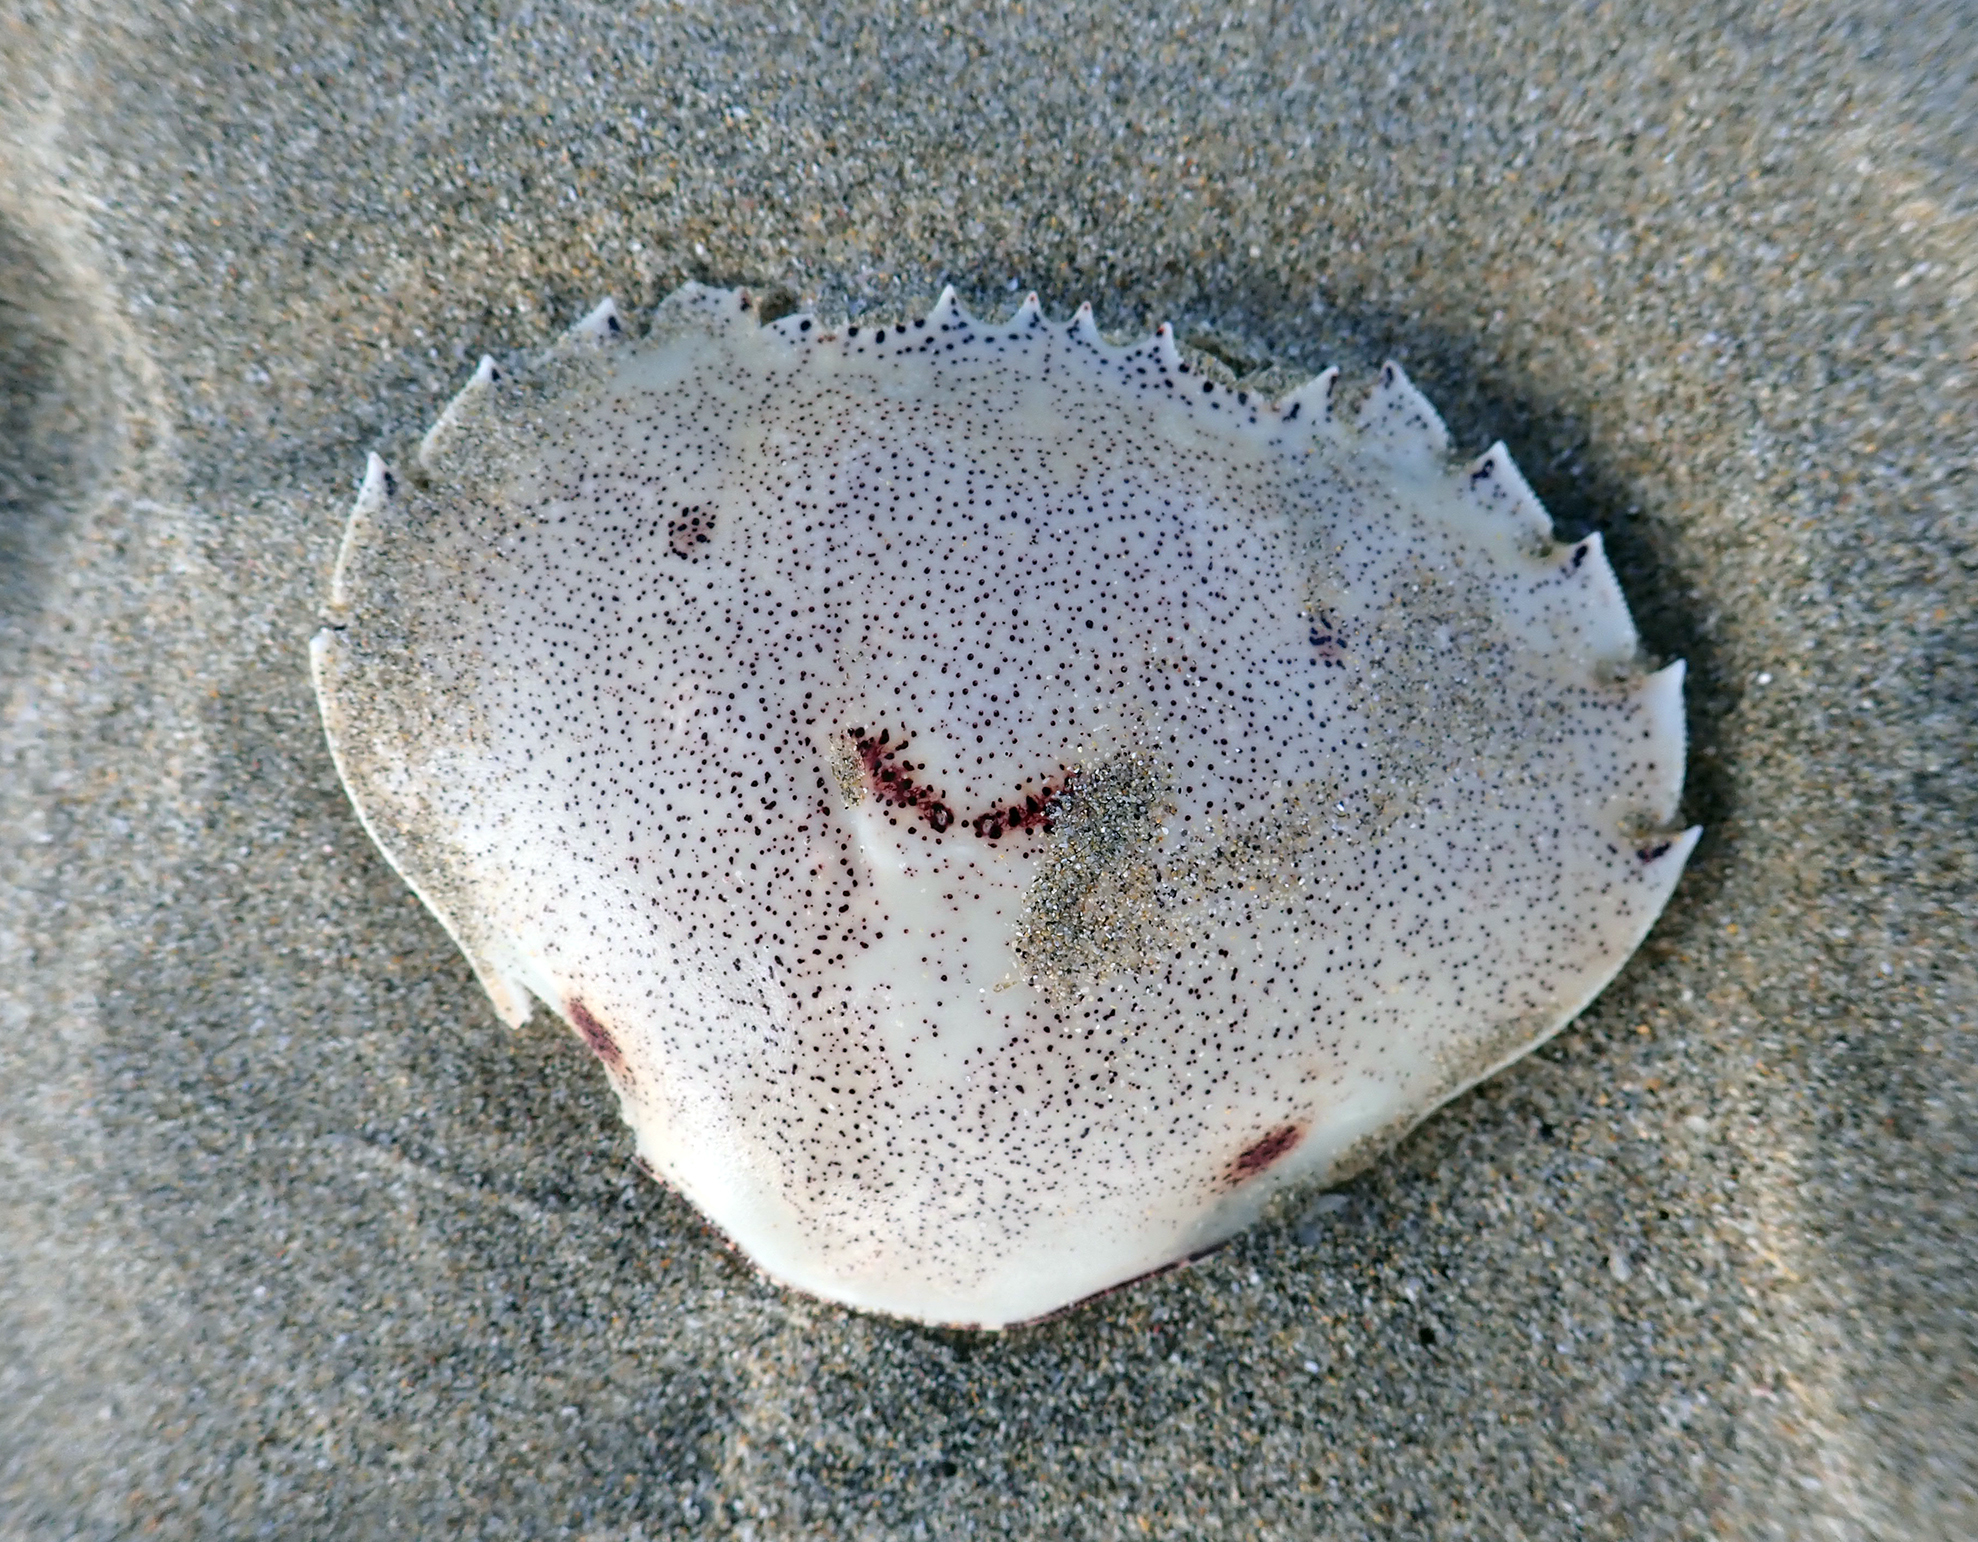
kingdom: Animalia
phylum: Arthropoda
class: Malacostraca
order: Decapoda
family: Ovalipidae
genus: Ovalipes
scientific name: Ovalipes catharus
